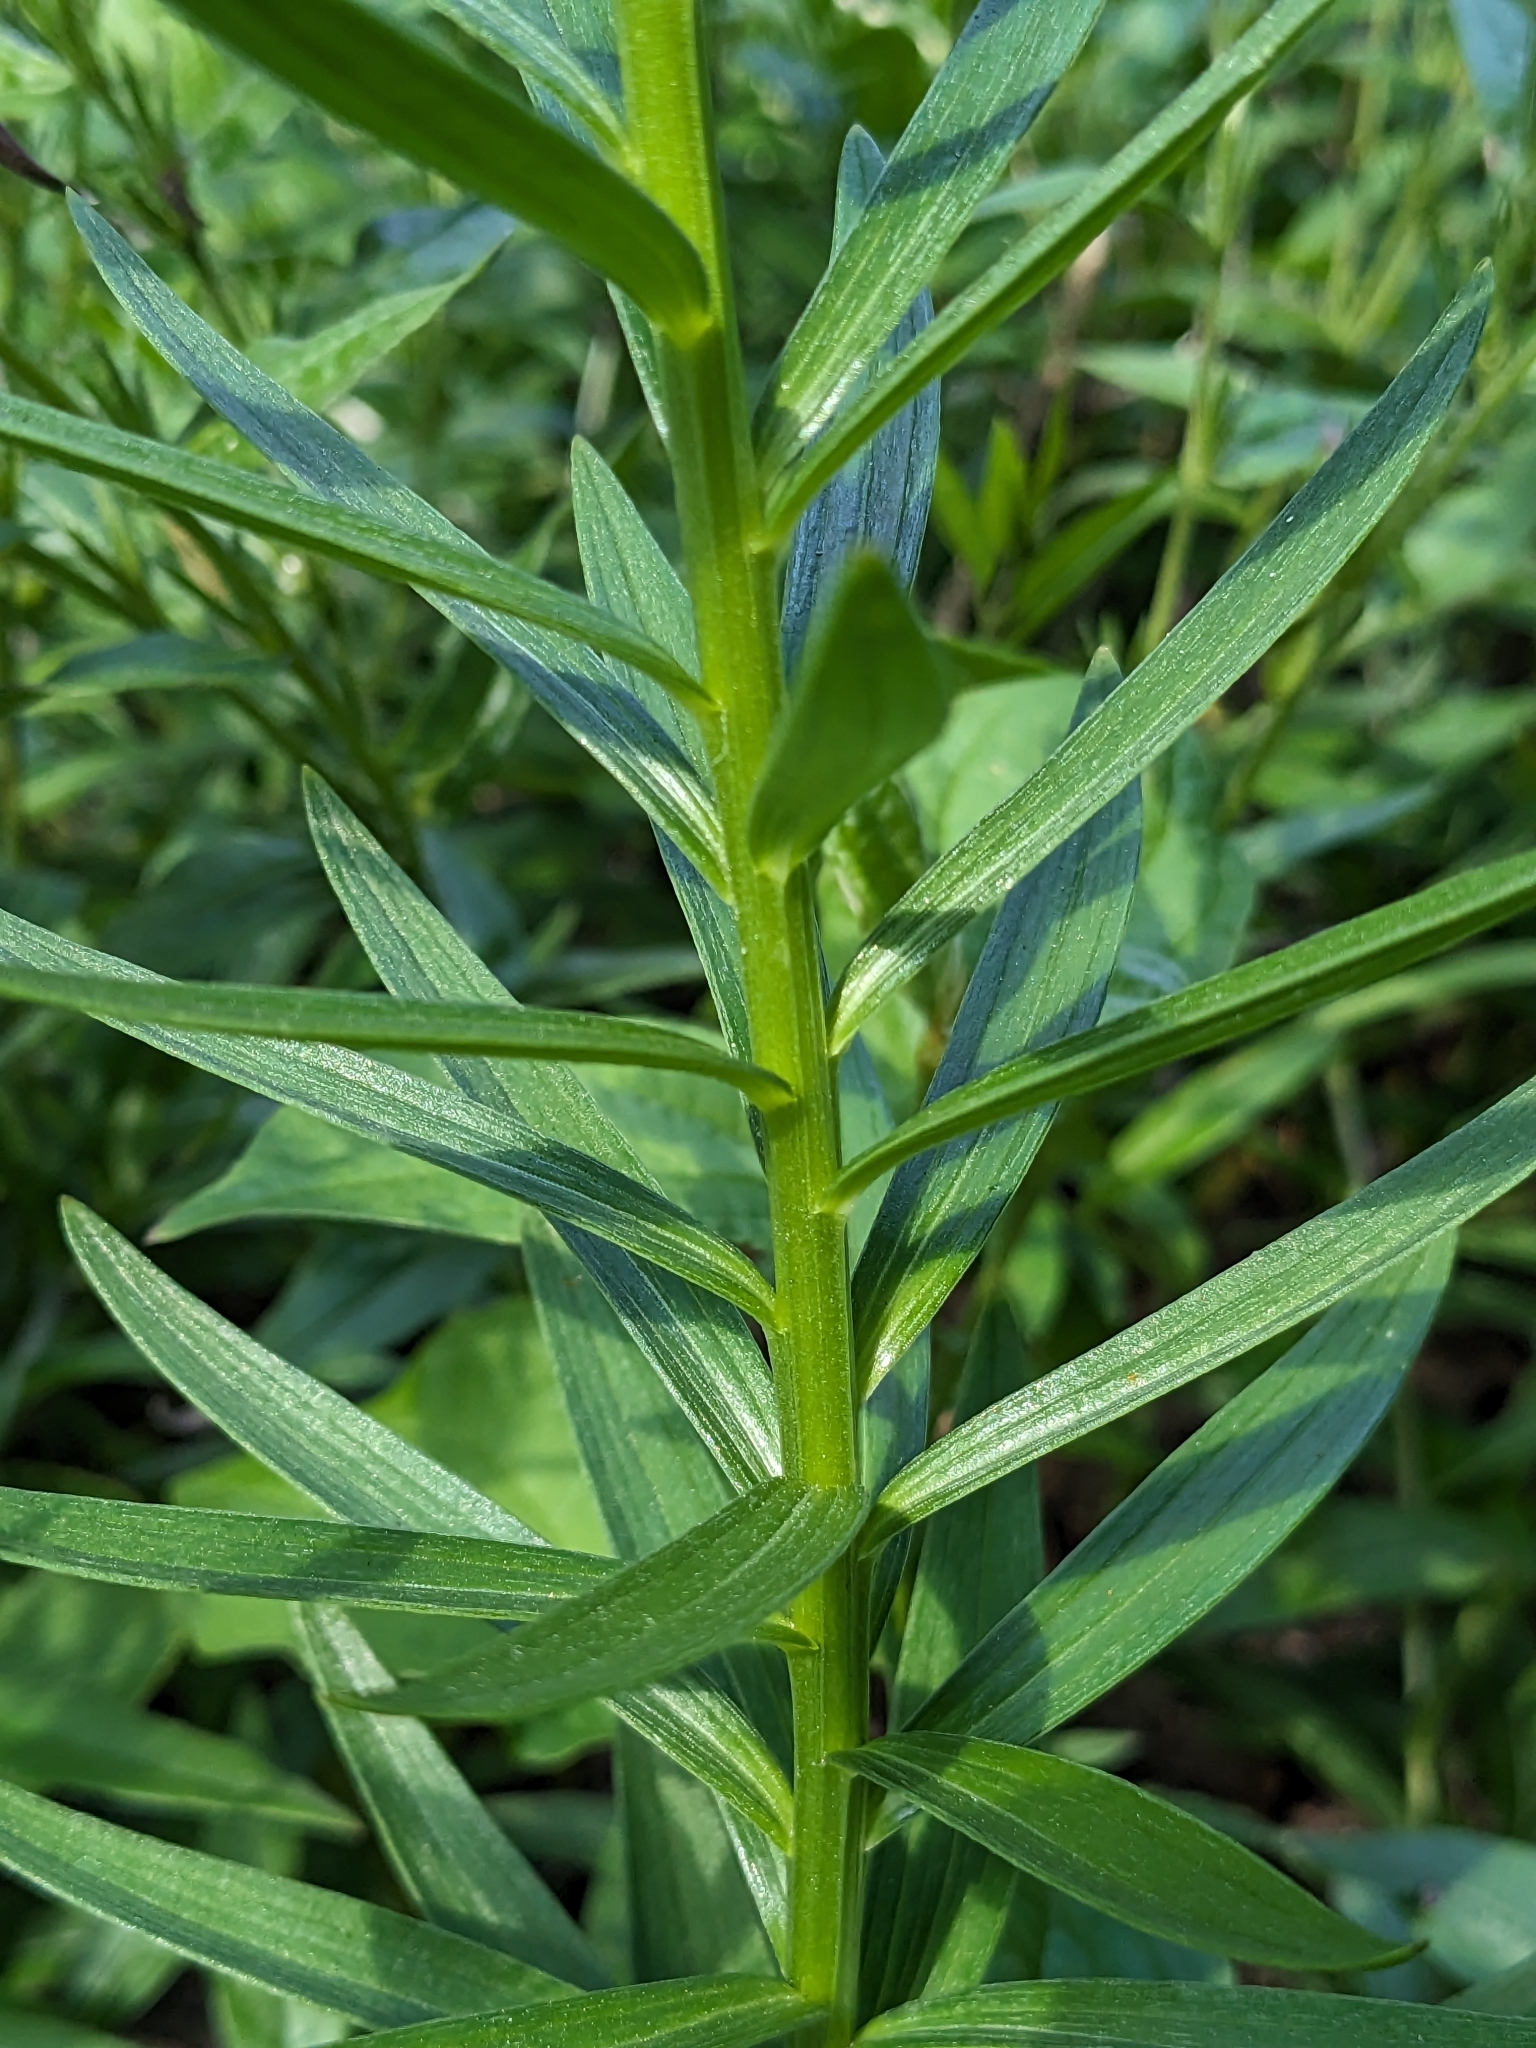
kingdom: Plantae
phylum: Tracheophyta
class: Magnoliopsida
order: Lamiales
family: Lamiaceae
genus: Melittis
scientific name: Melittis melissophyllum
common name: Bastard balm
